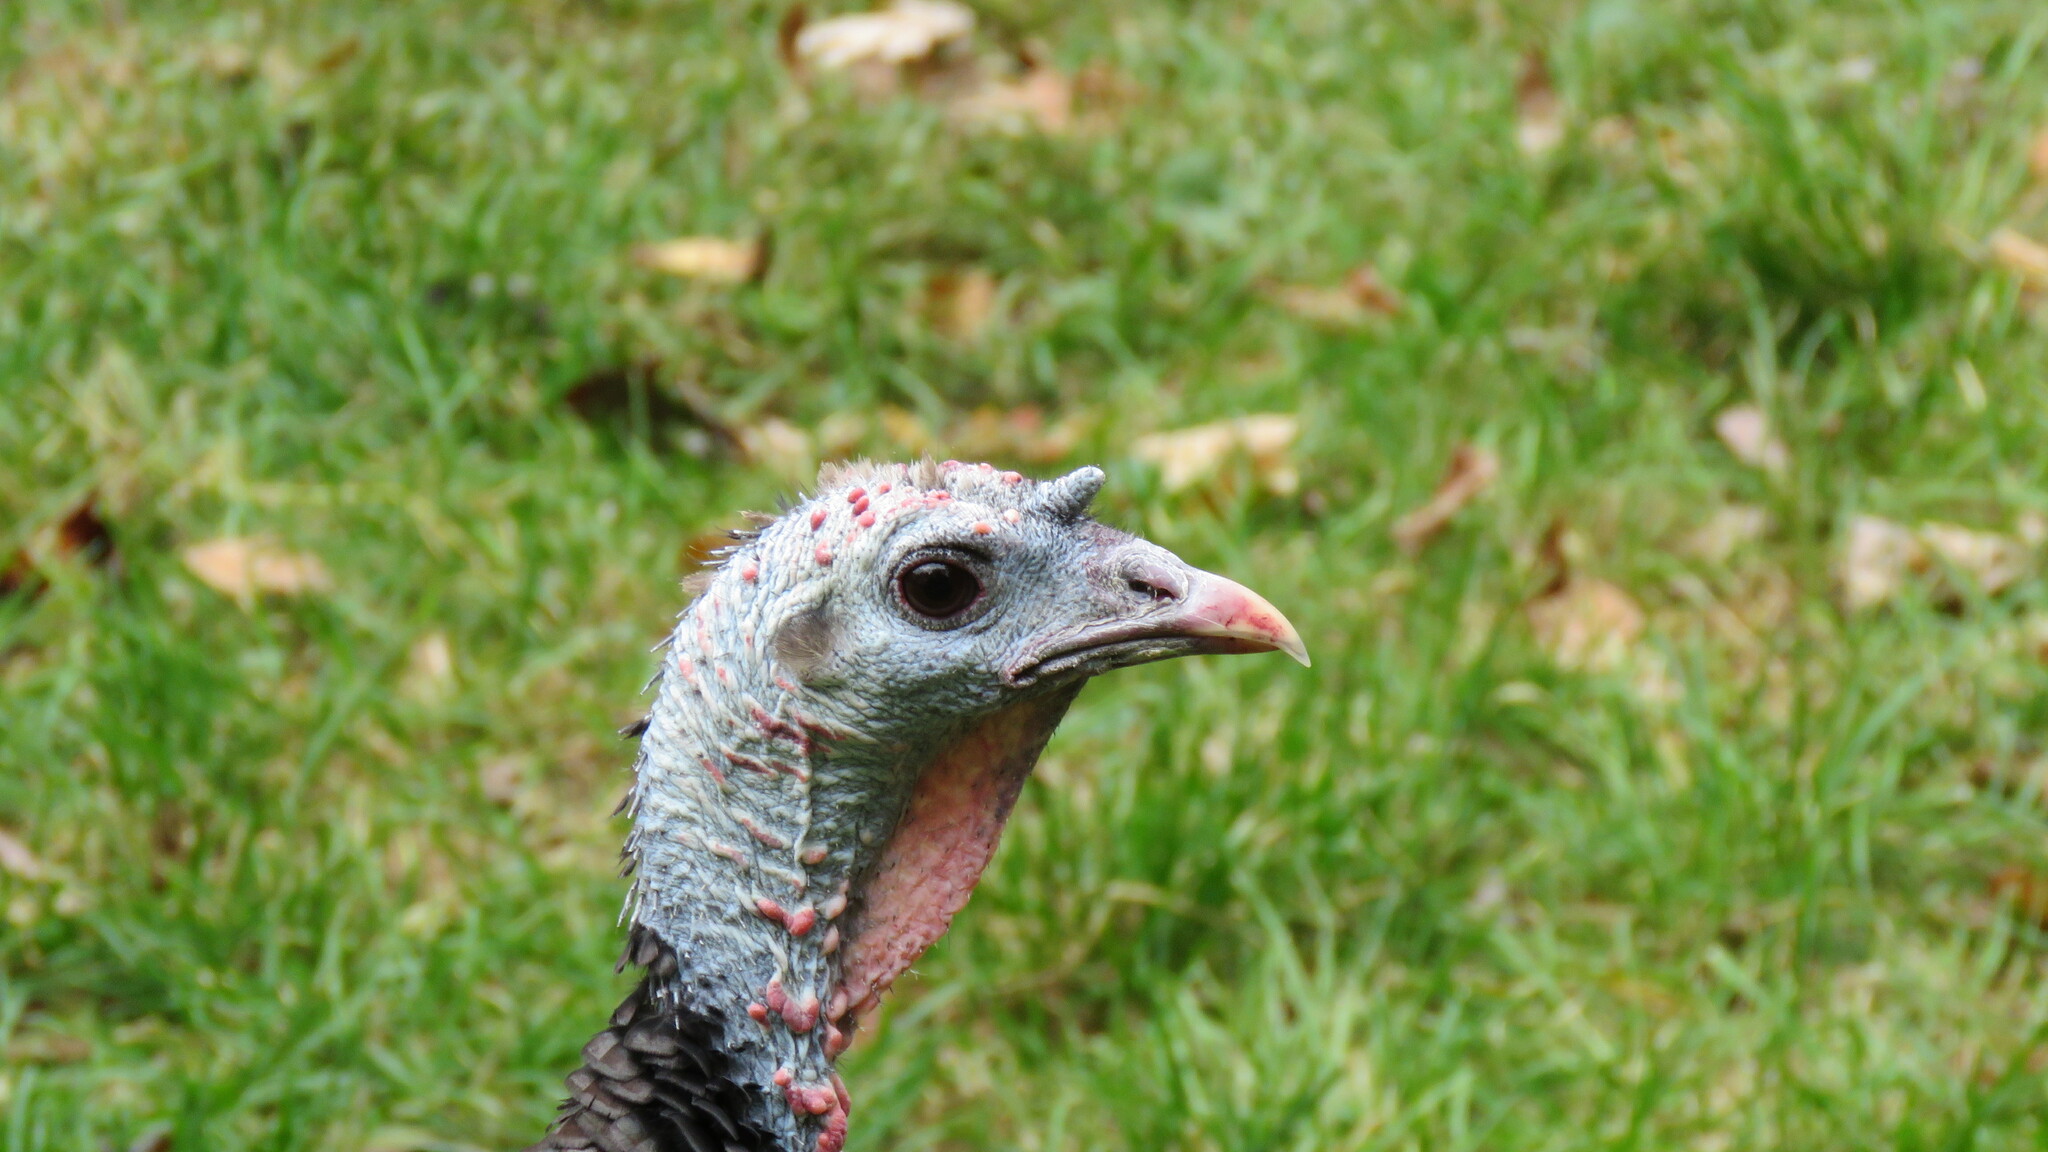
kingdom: Animalia
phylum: Chordata
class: Aves
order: Galliformes
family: Phasianidae
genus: Meleagris
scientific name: Meleagris gallopavo
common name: Wild turkey
